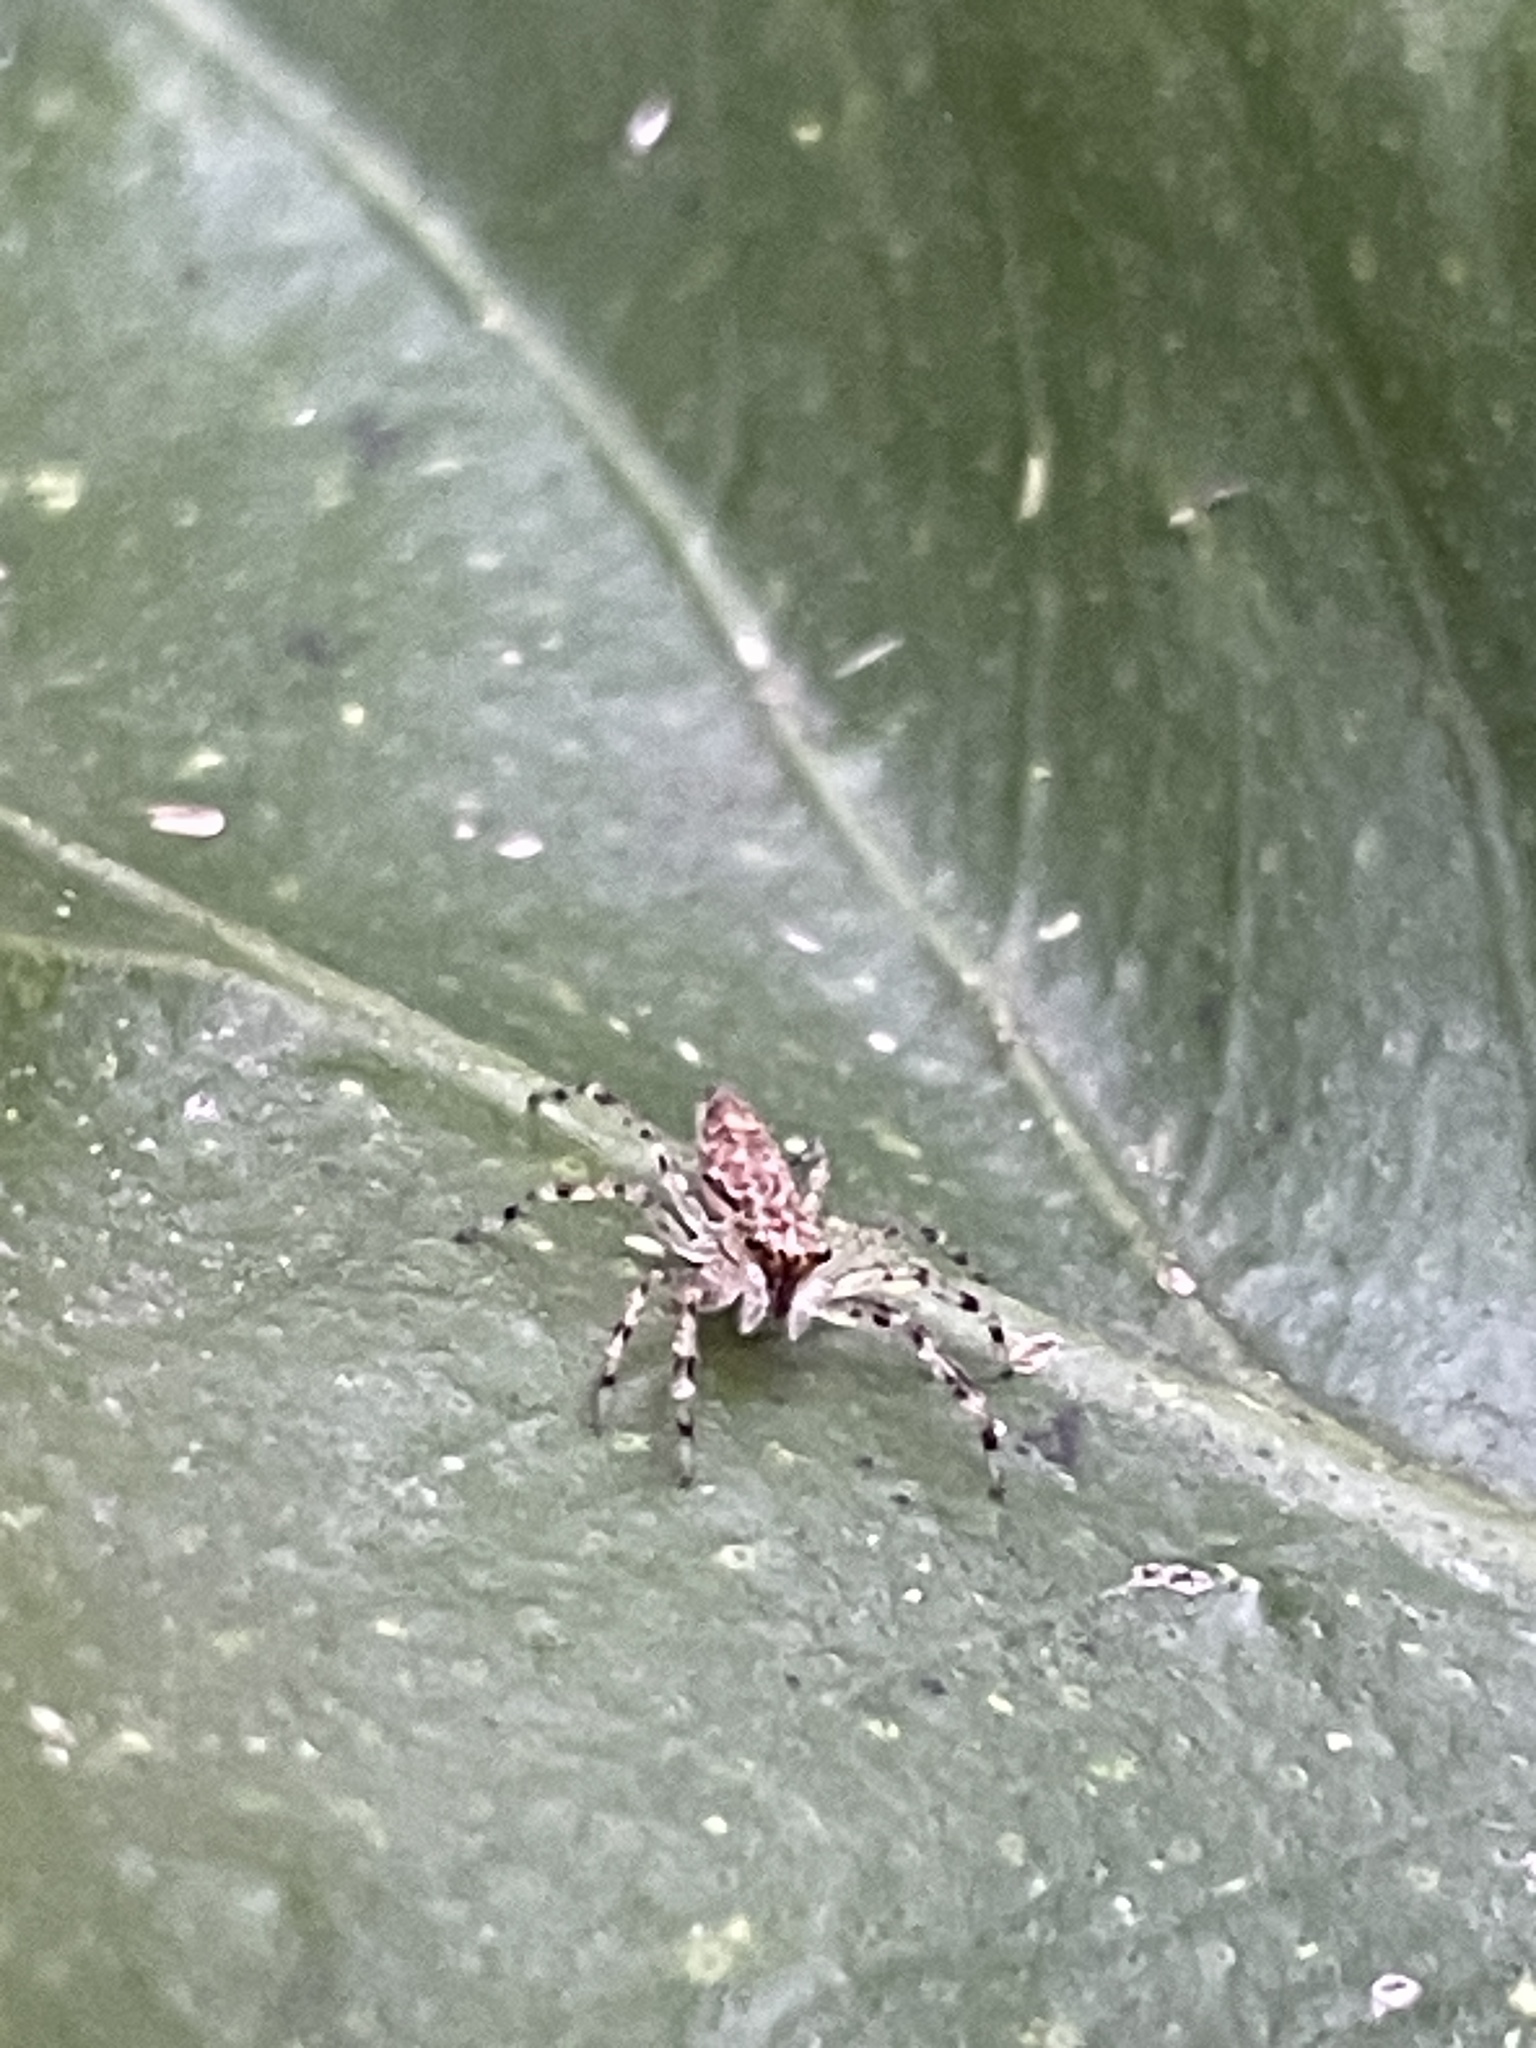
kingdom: Animalia
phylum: Arthropoda
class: Arachnida
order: Araneae
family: Salticidae
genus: Helpis
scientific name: Helpis minitabunda
